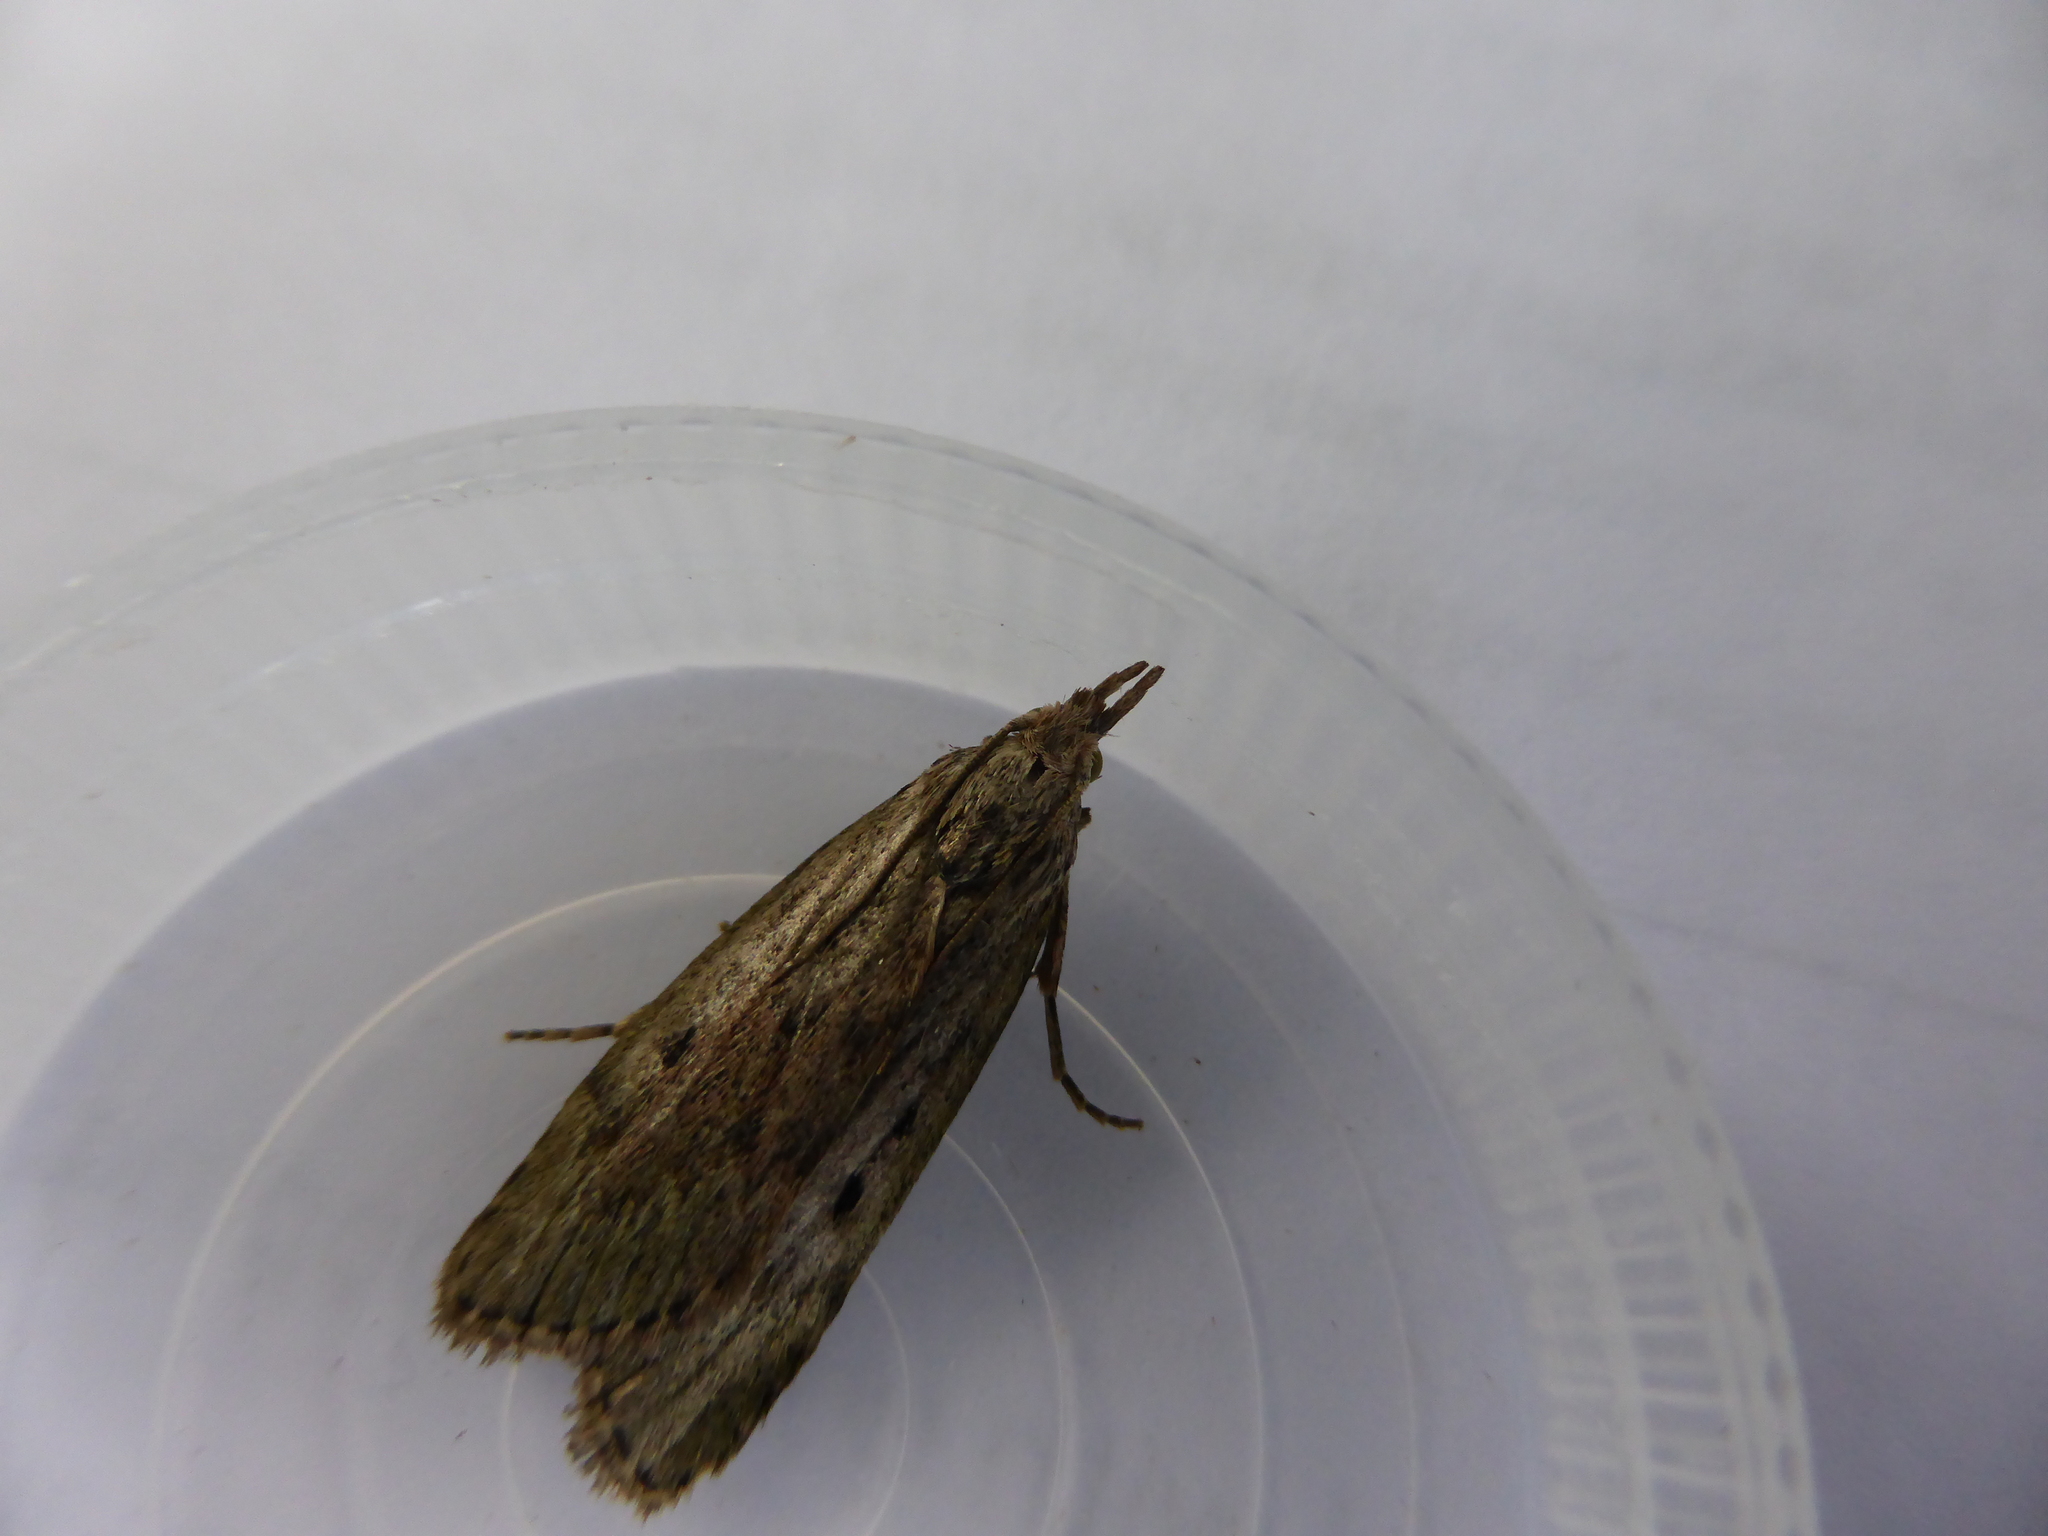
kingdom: Animalia
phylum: Arthropoda
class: Insecta
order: Lepidoptera
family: Pyralidae
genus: Aphomia
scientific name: Aphomia sociella
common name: Bee moth
